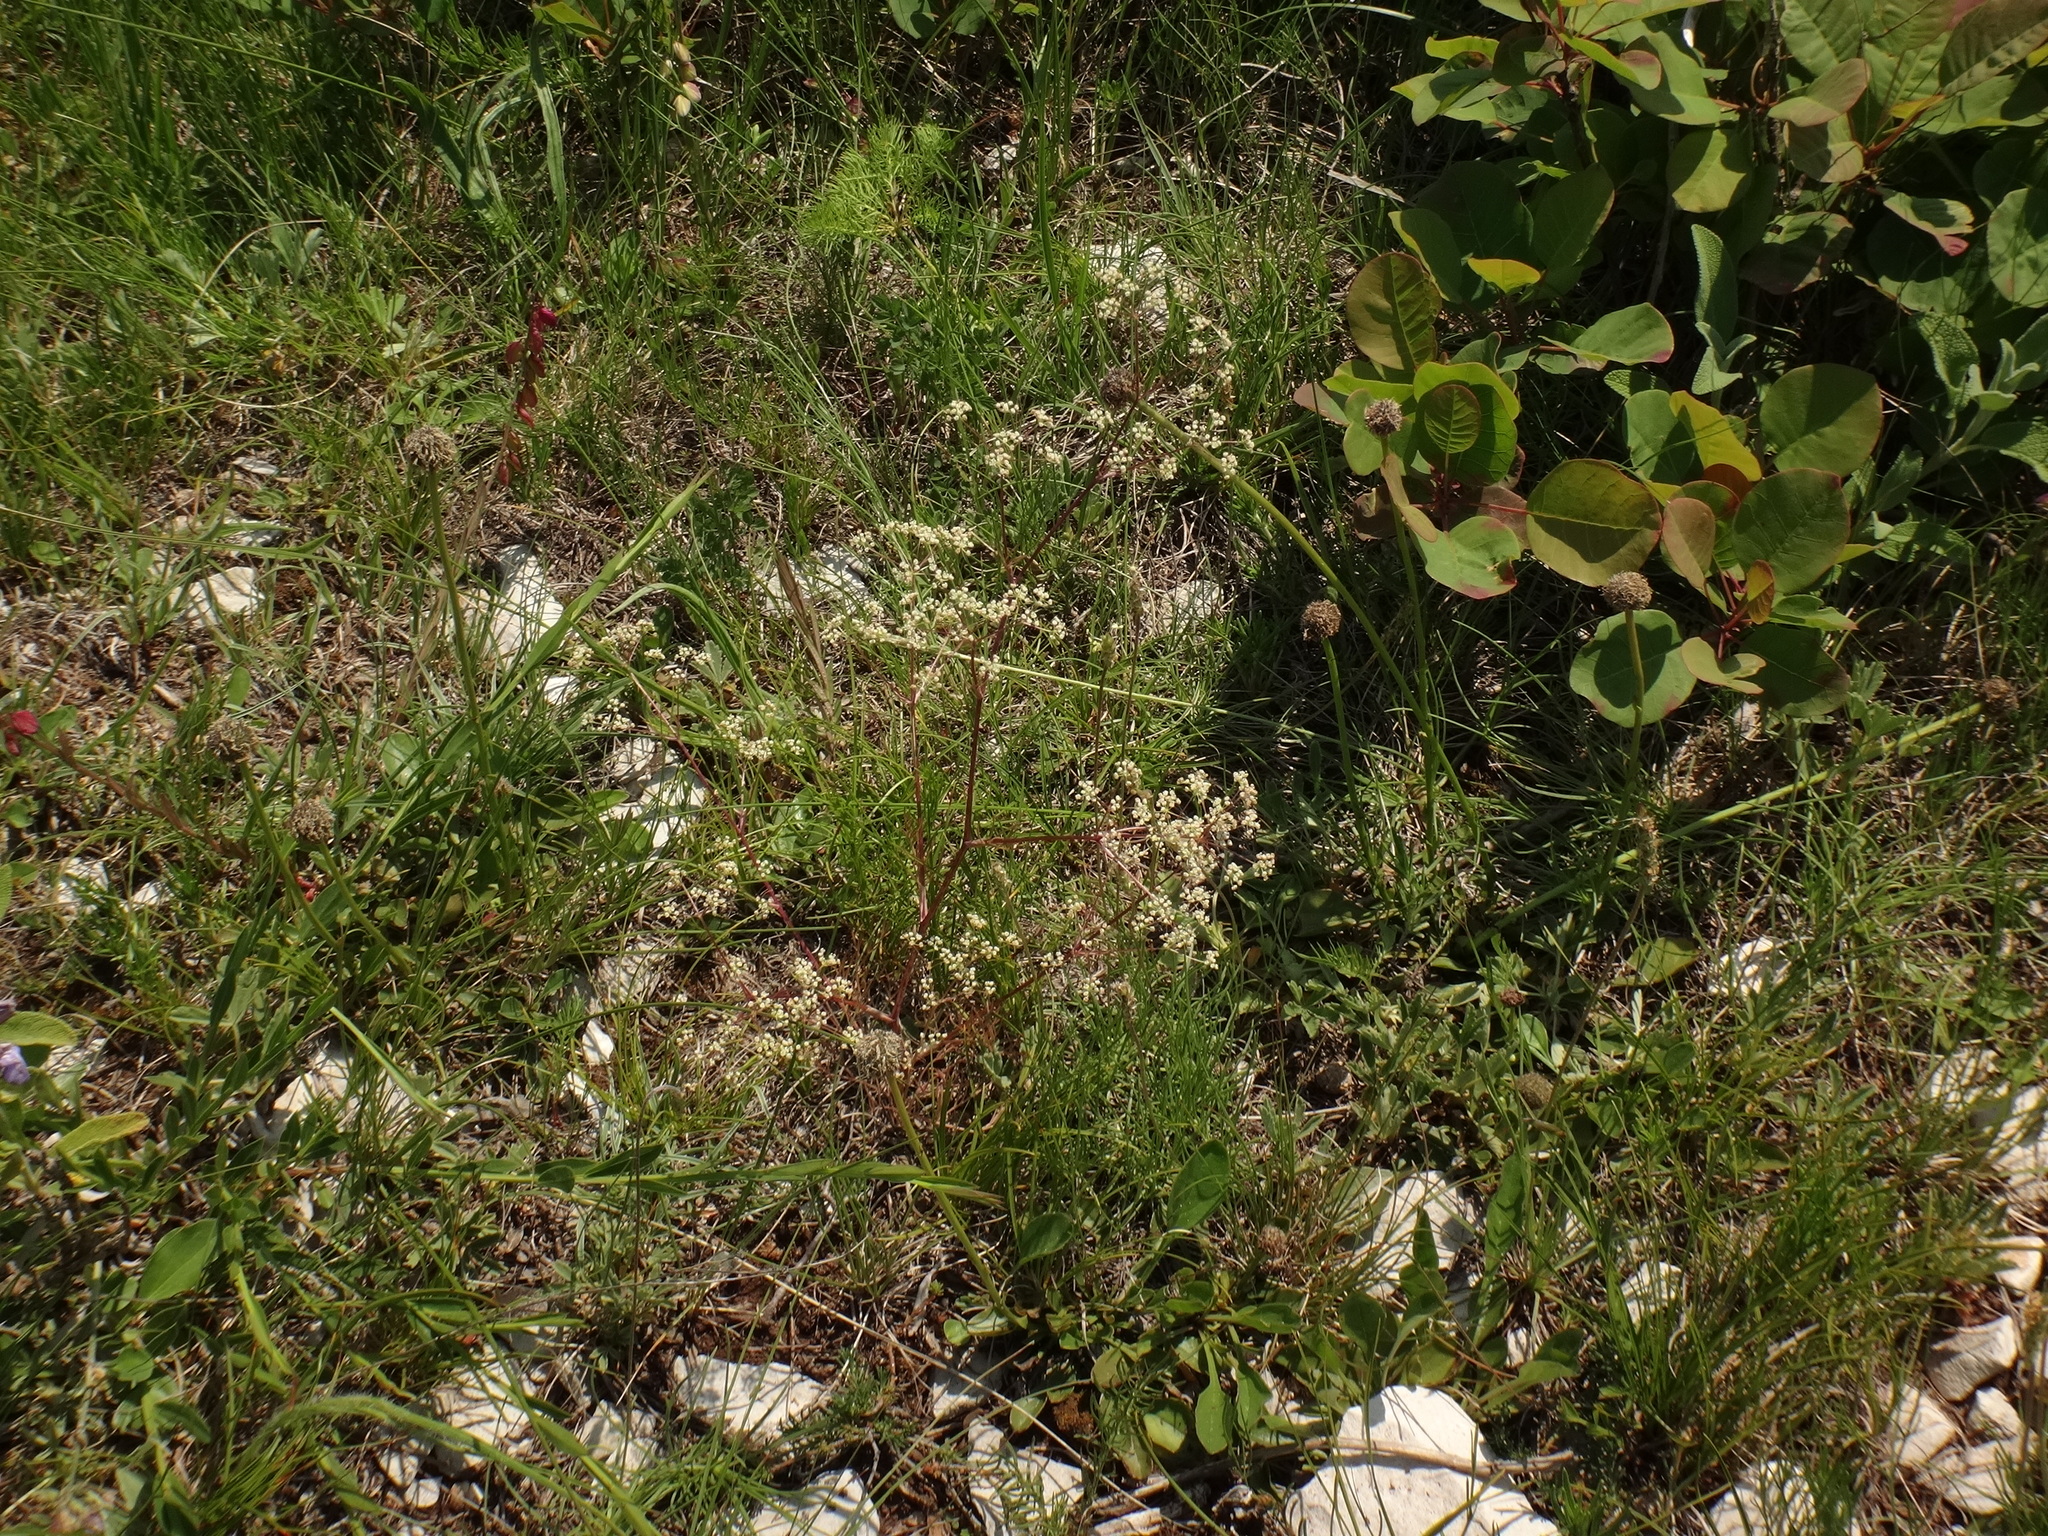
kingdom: Plantae
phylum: Tracheophyta
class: Magnoliopsida
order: Apiales
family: Apiaceae
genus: Trinia
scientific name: Trinia glauca
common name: Honewort
